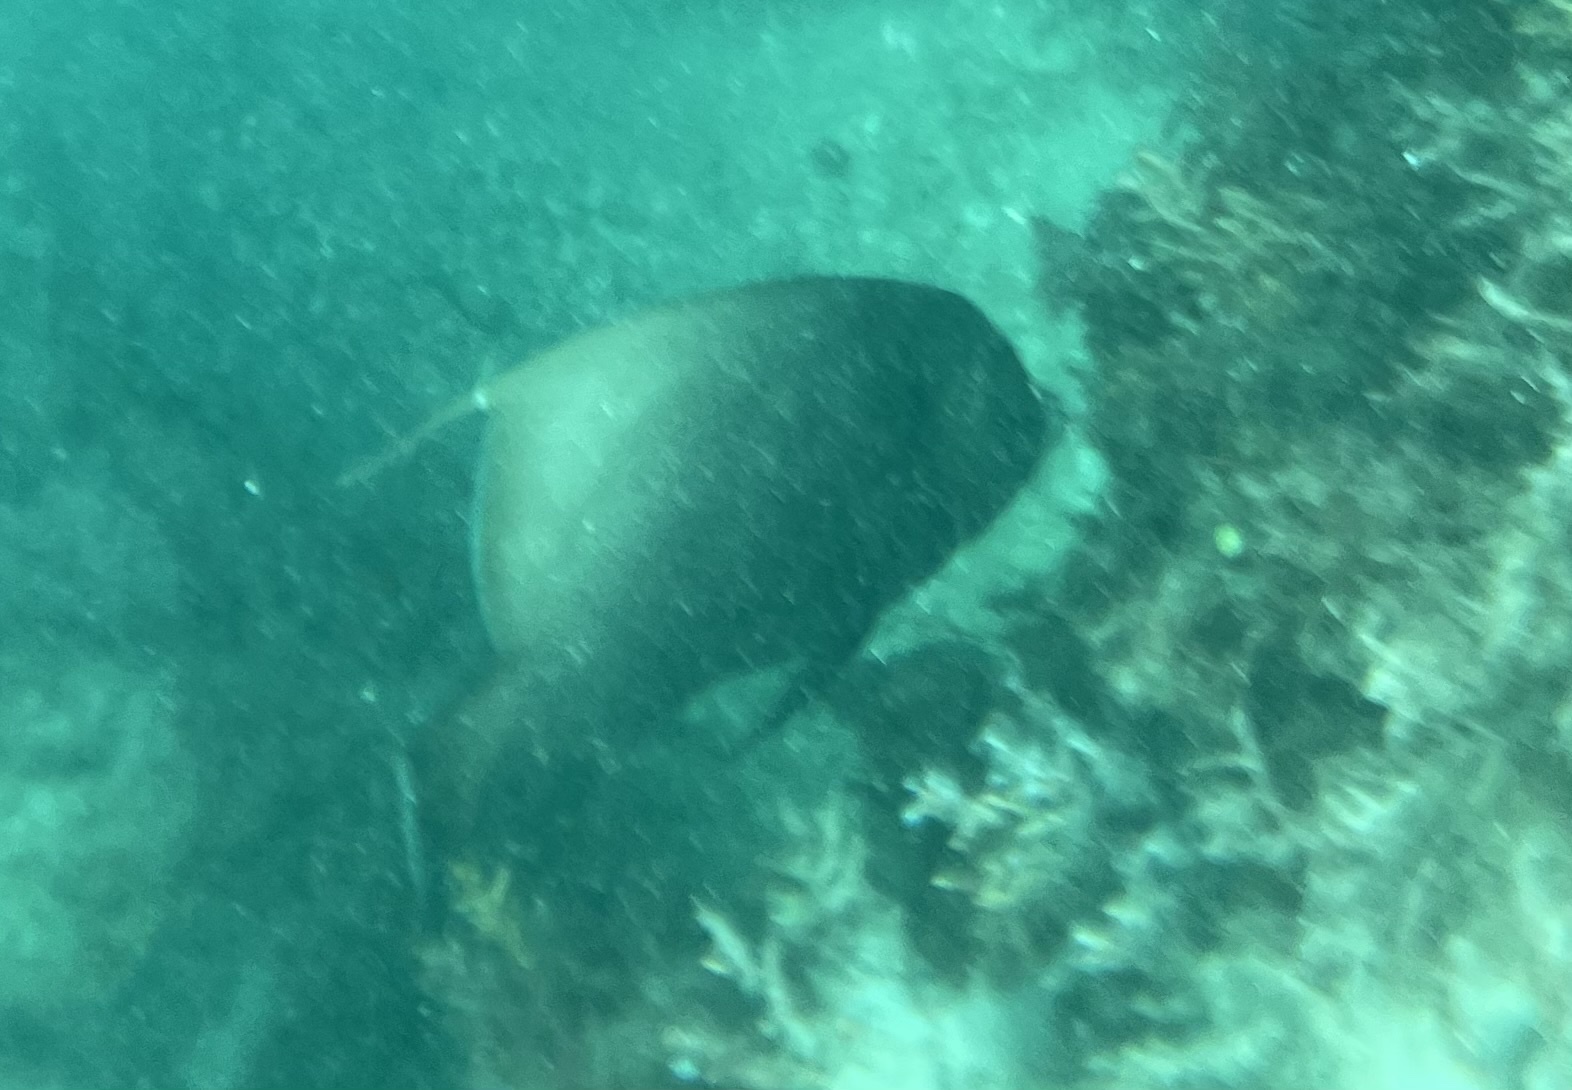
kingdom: Animalia
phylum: Chordata
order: Perciformes
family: Pomacanthidae
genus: Pomacanthus
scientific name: Pomacanthus arcuatus
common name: Gray angelfish
